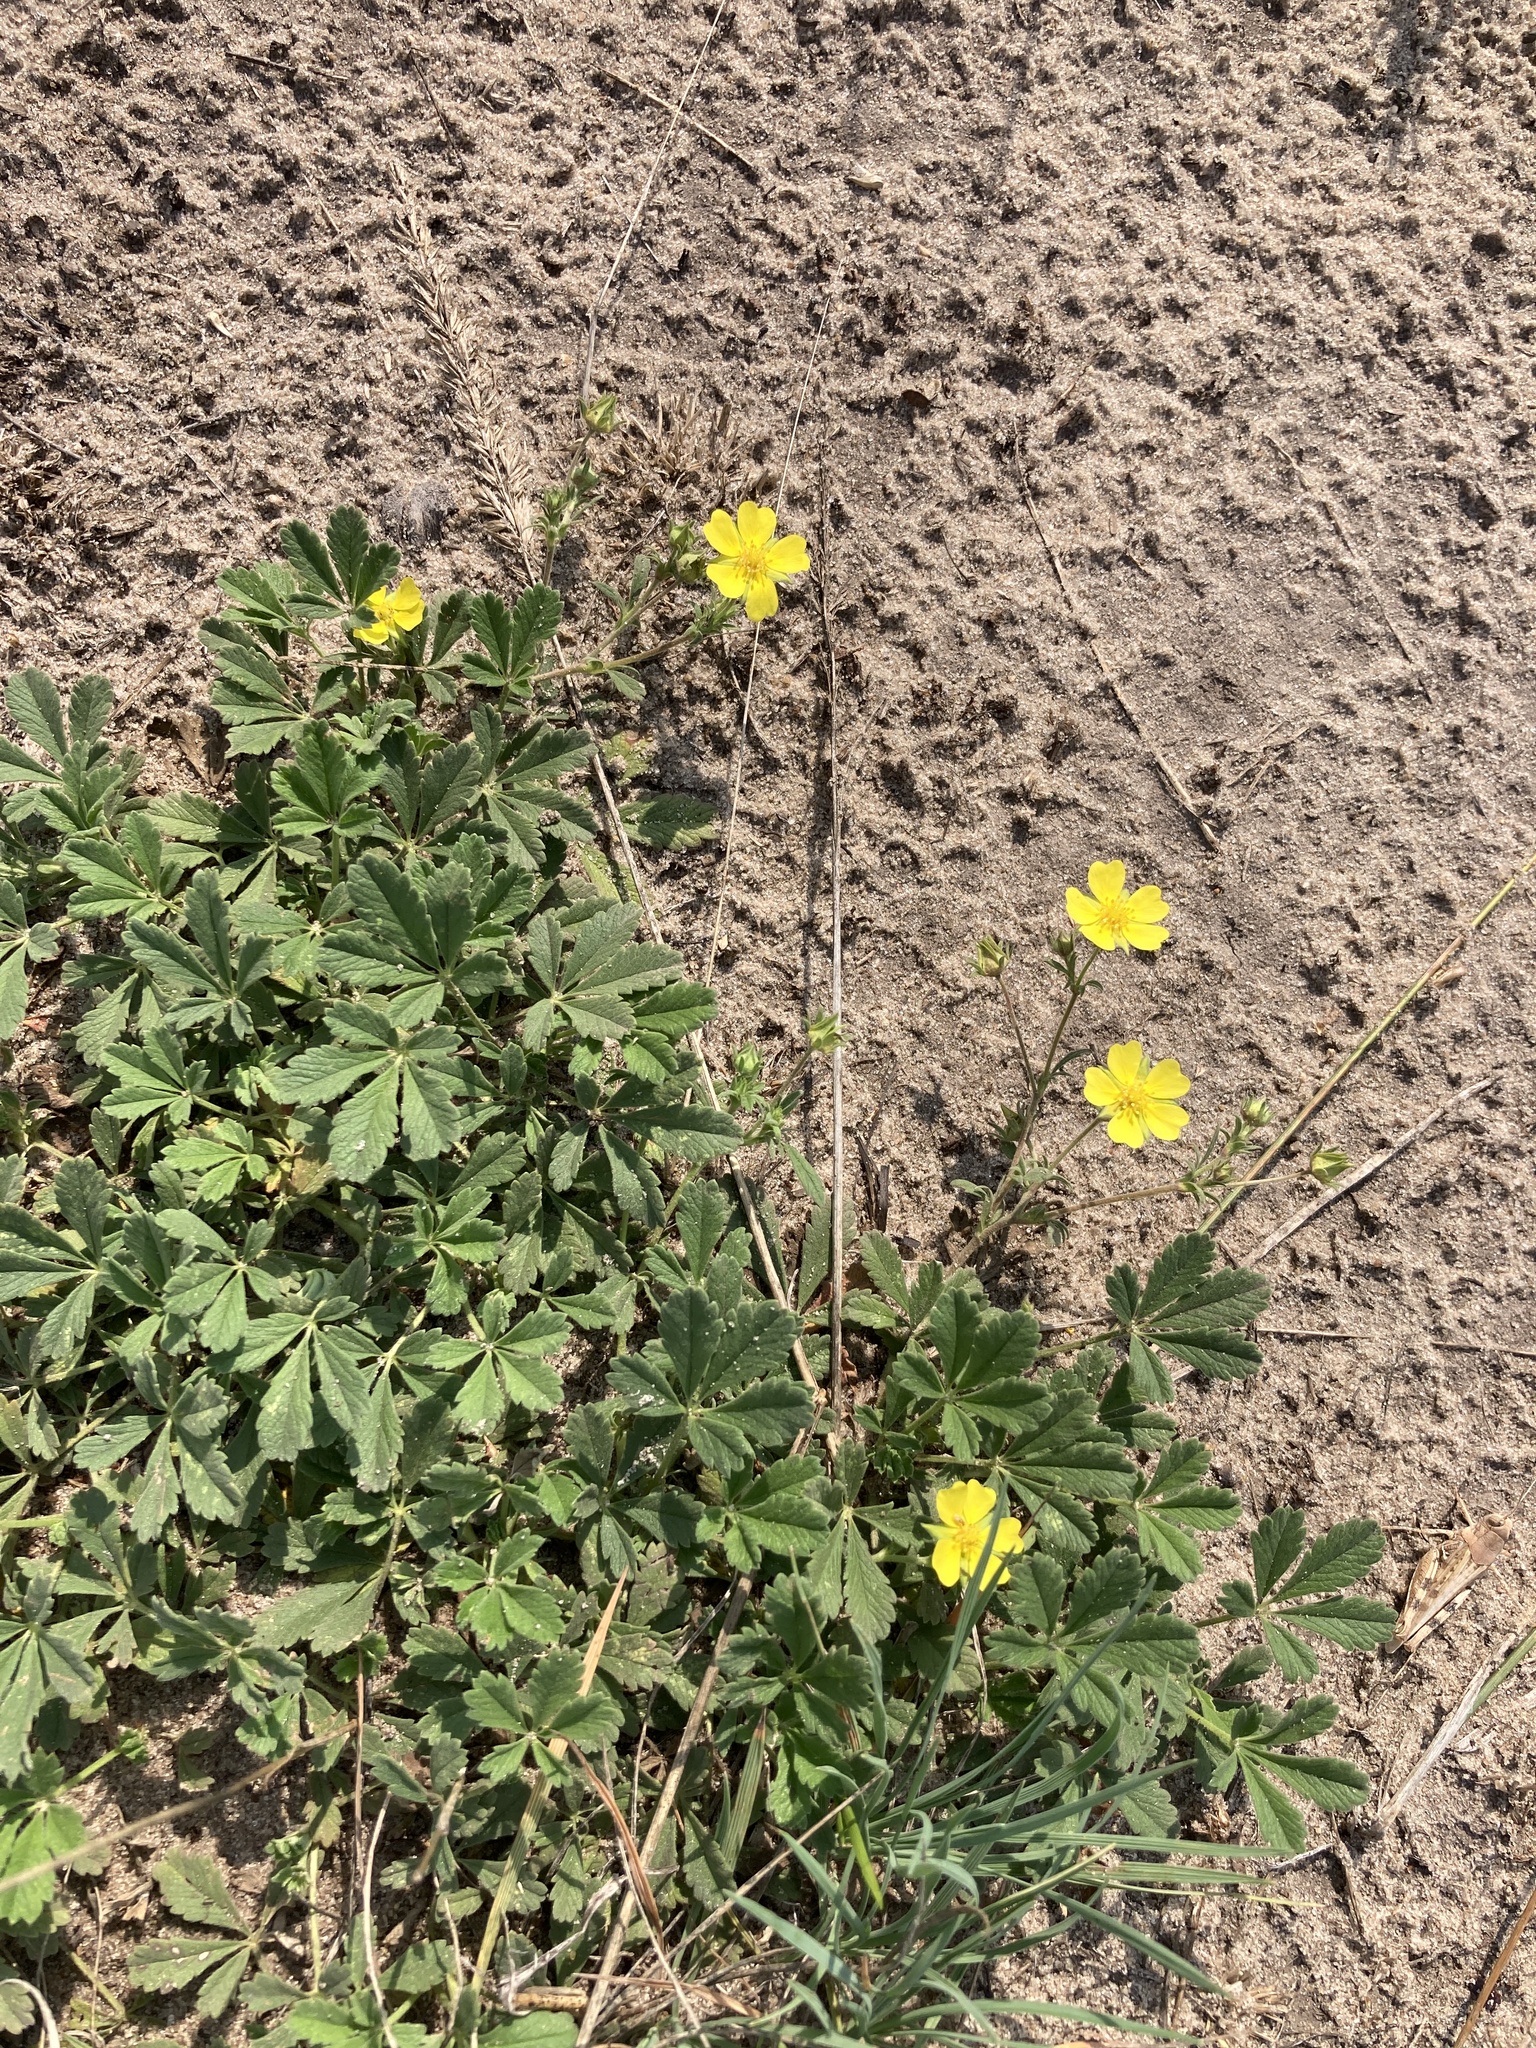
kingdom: Plantae
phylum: Tracheophyta
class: Magnoliopsida
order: Rosales
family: Rosaceae
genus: Potentilla
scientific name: Potentilla incana
